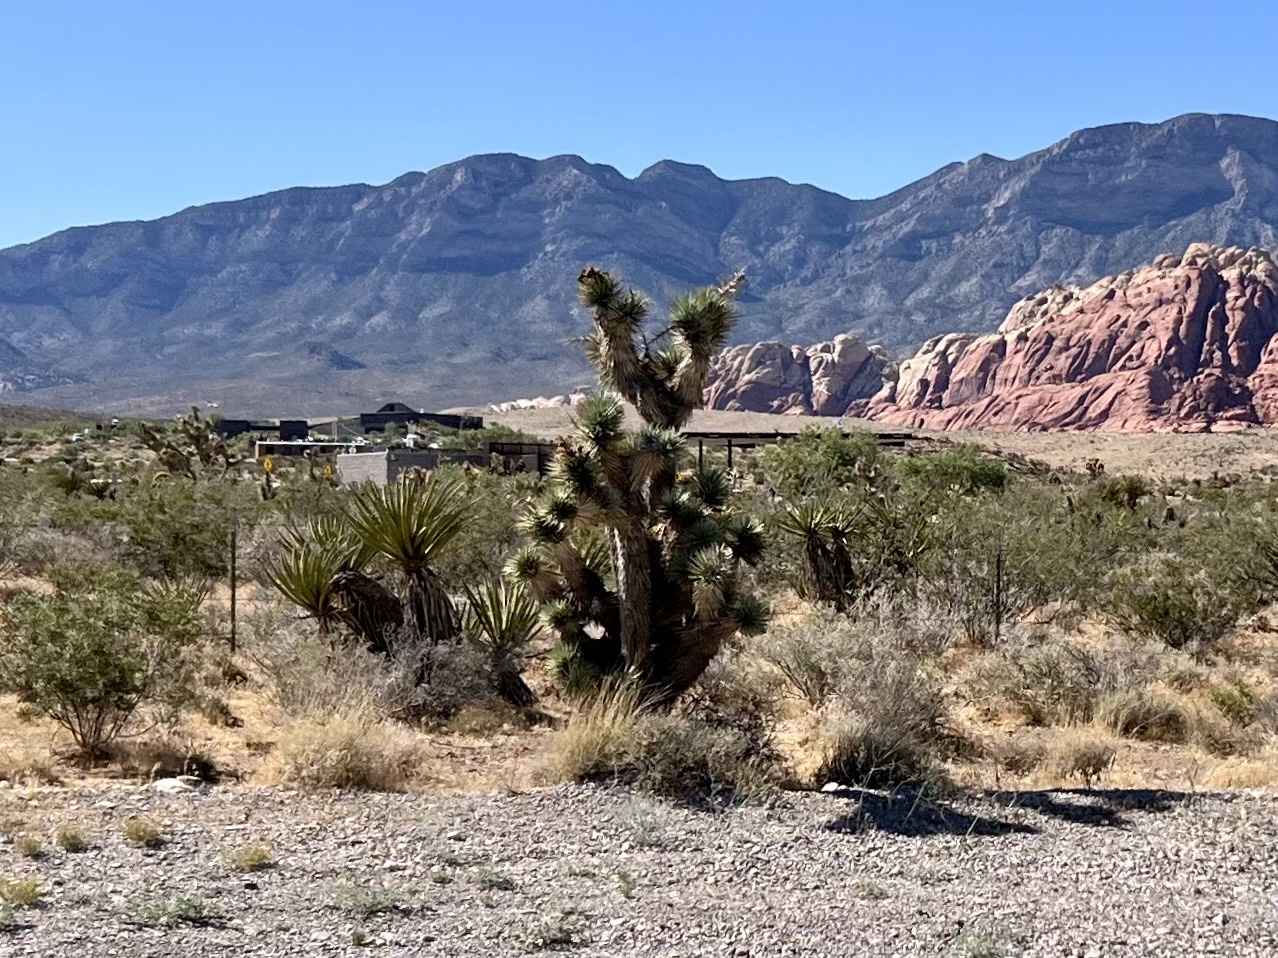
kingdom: Plantae
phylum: Tracheophyta
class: Liliopsida
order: Asparagales
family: Asparagaceae
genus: Yucca
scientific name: Yucca brevifolia
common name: Joshua tree
